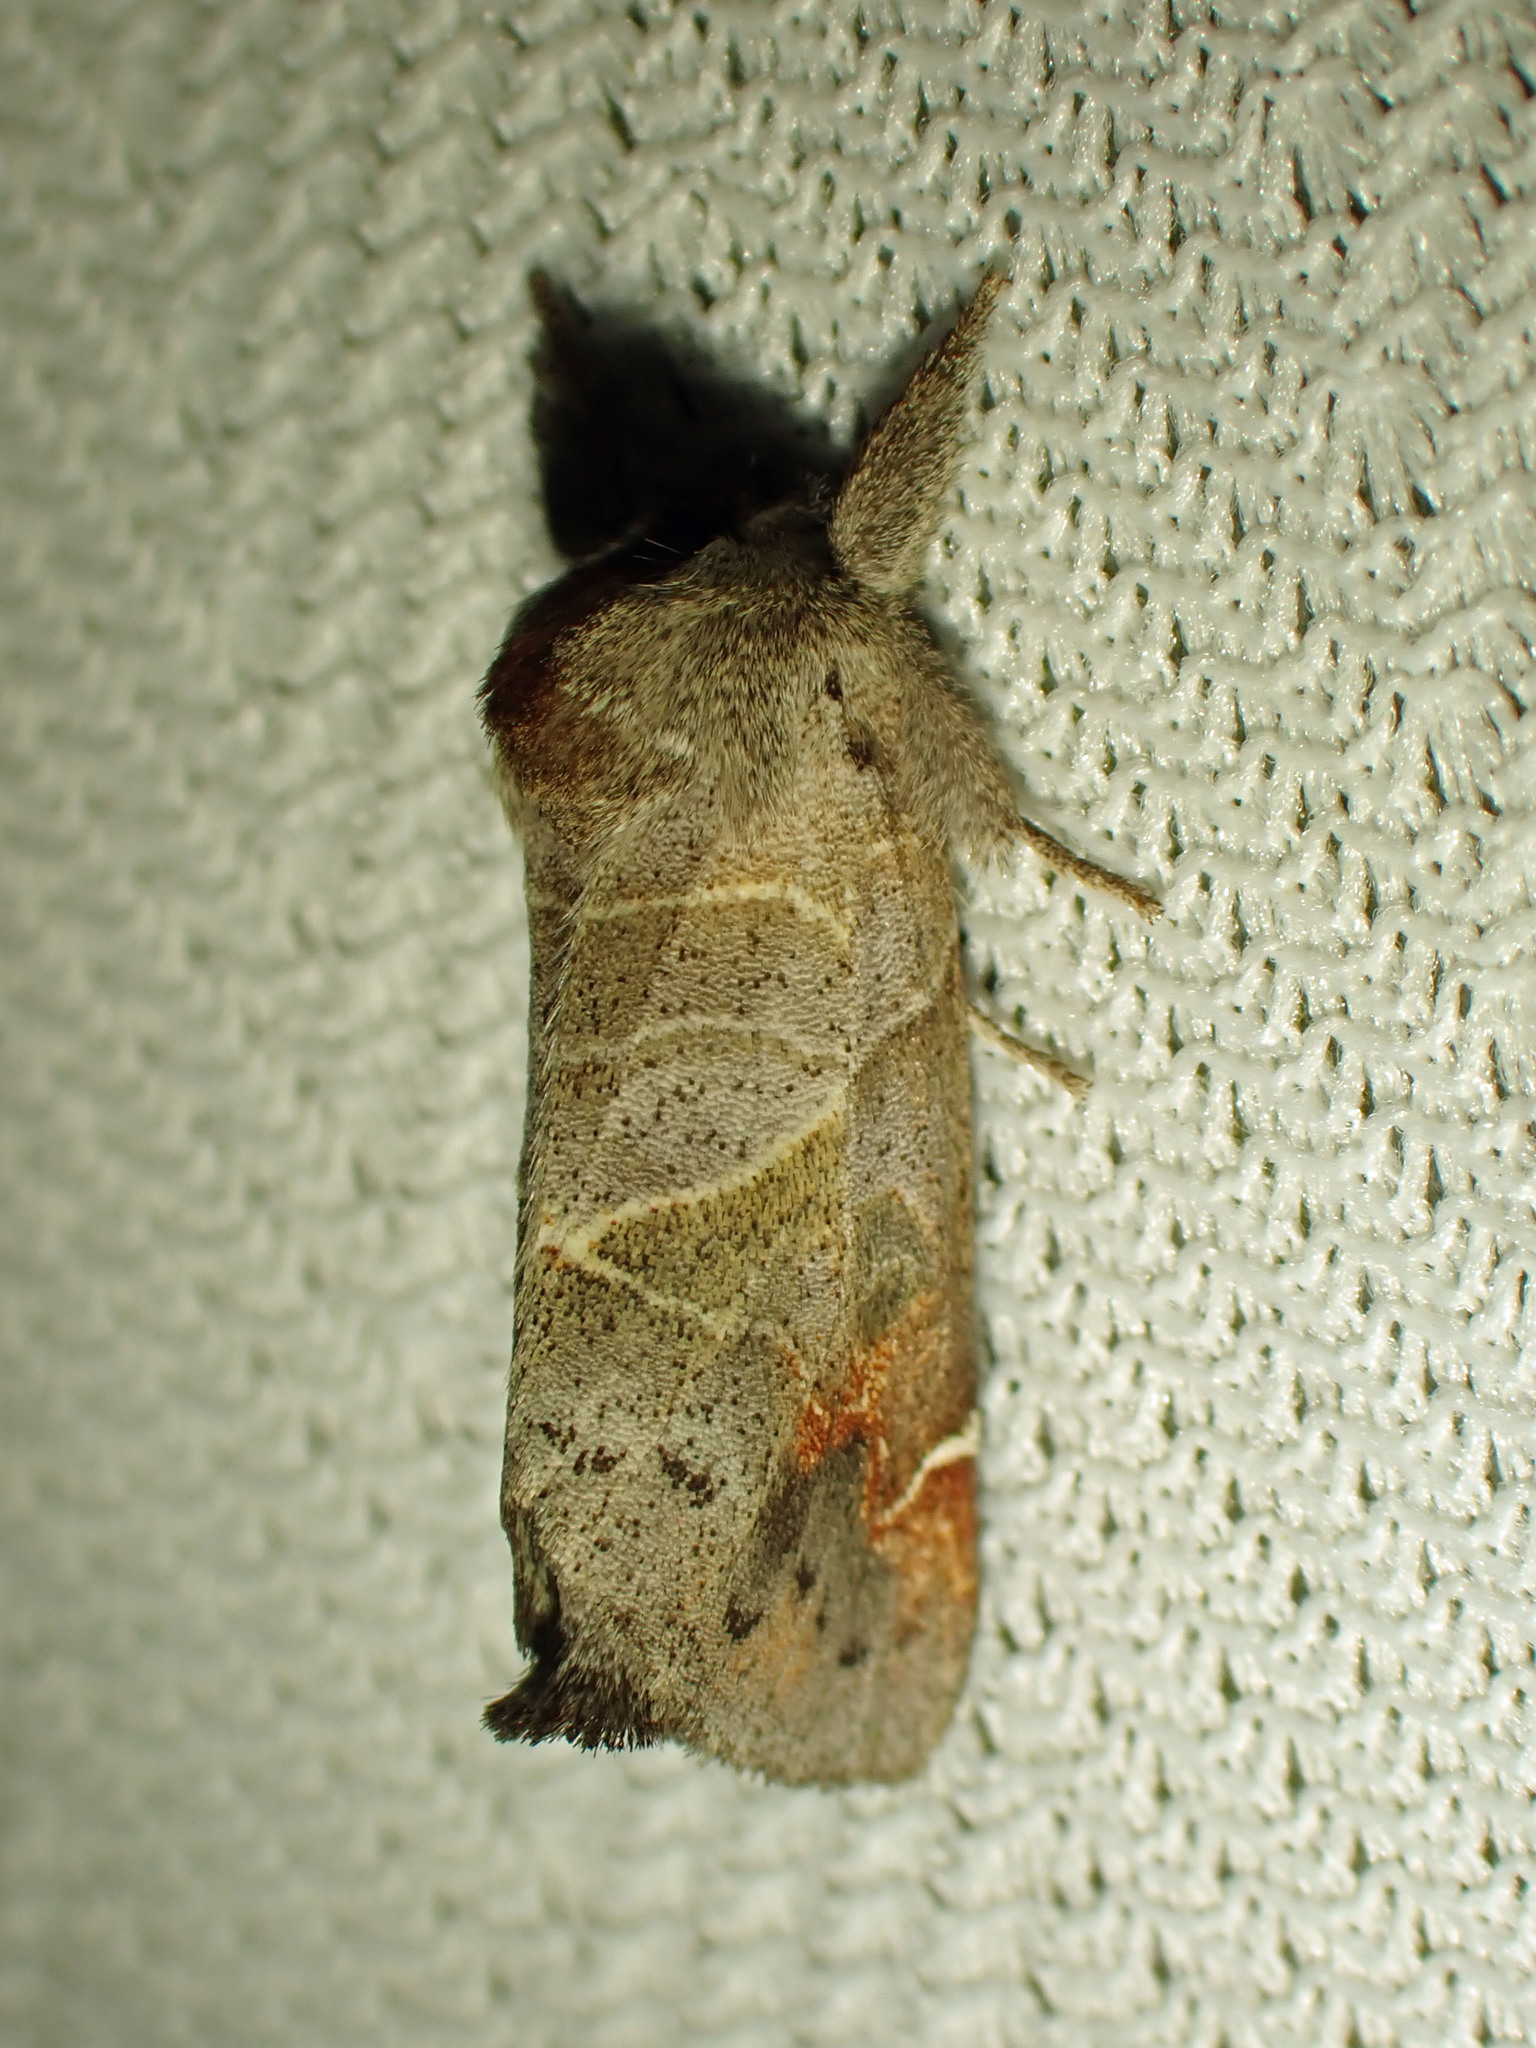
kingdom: Animalia
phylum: Arthropoda
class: Insecta
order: Lepidoptera
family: Notodontidae
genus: Clostera
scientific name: Clostera apicalis
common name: Apical prominent
